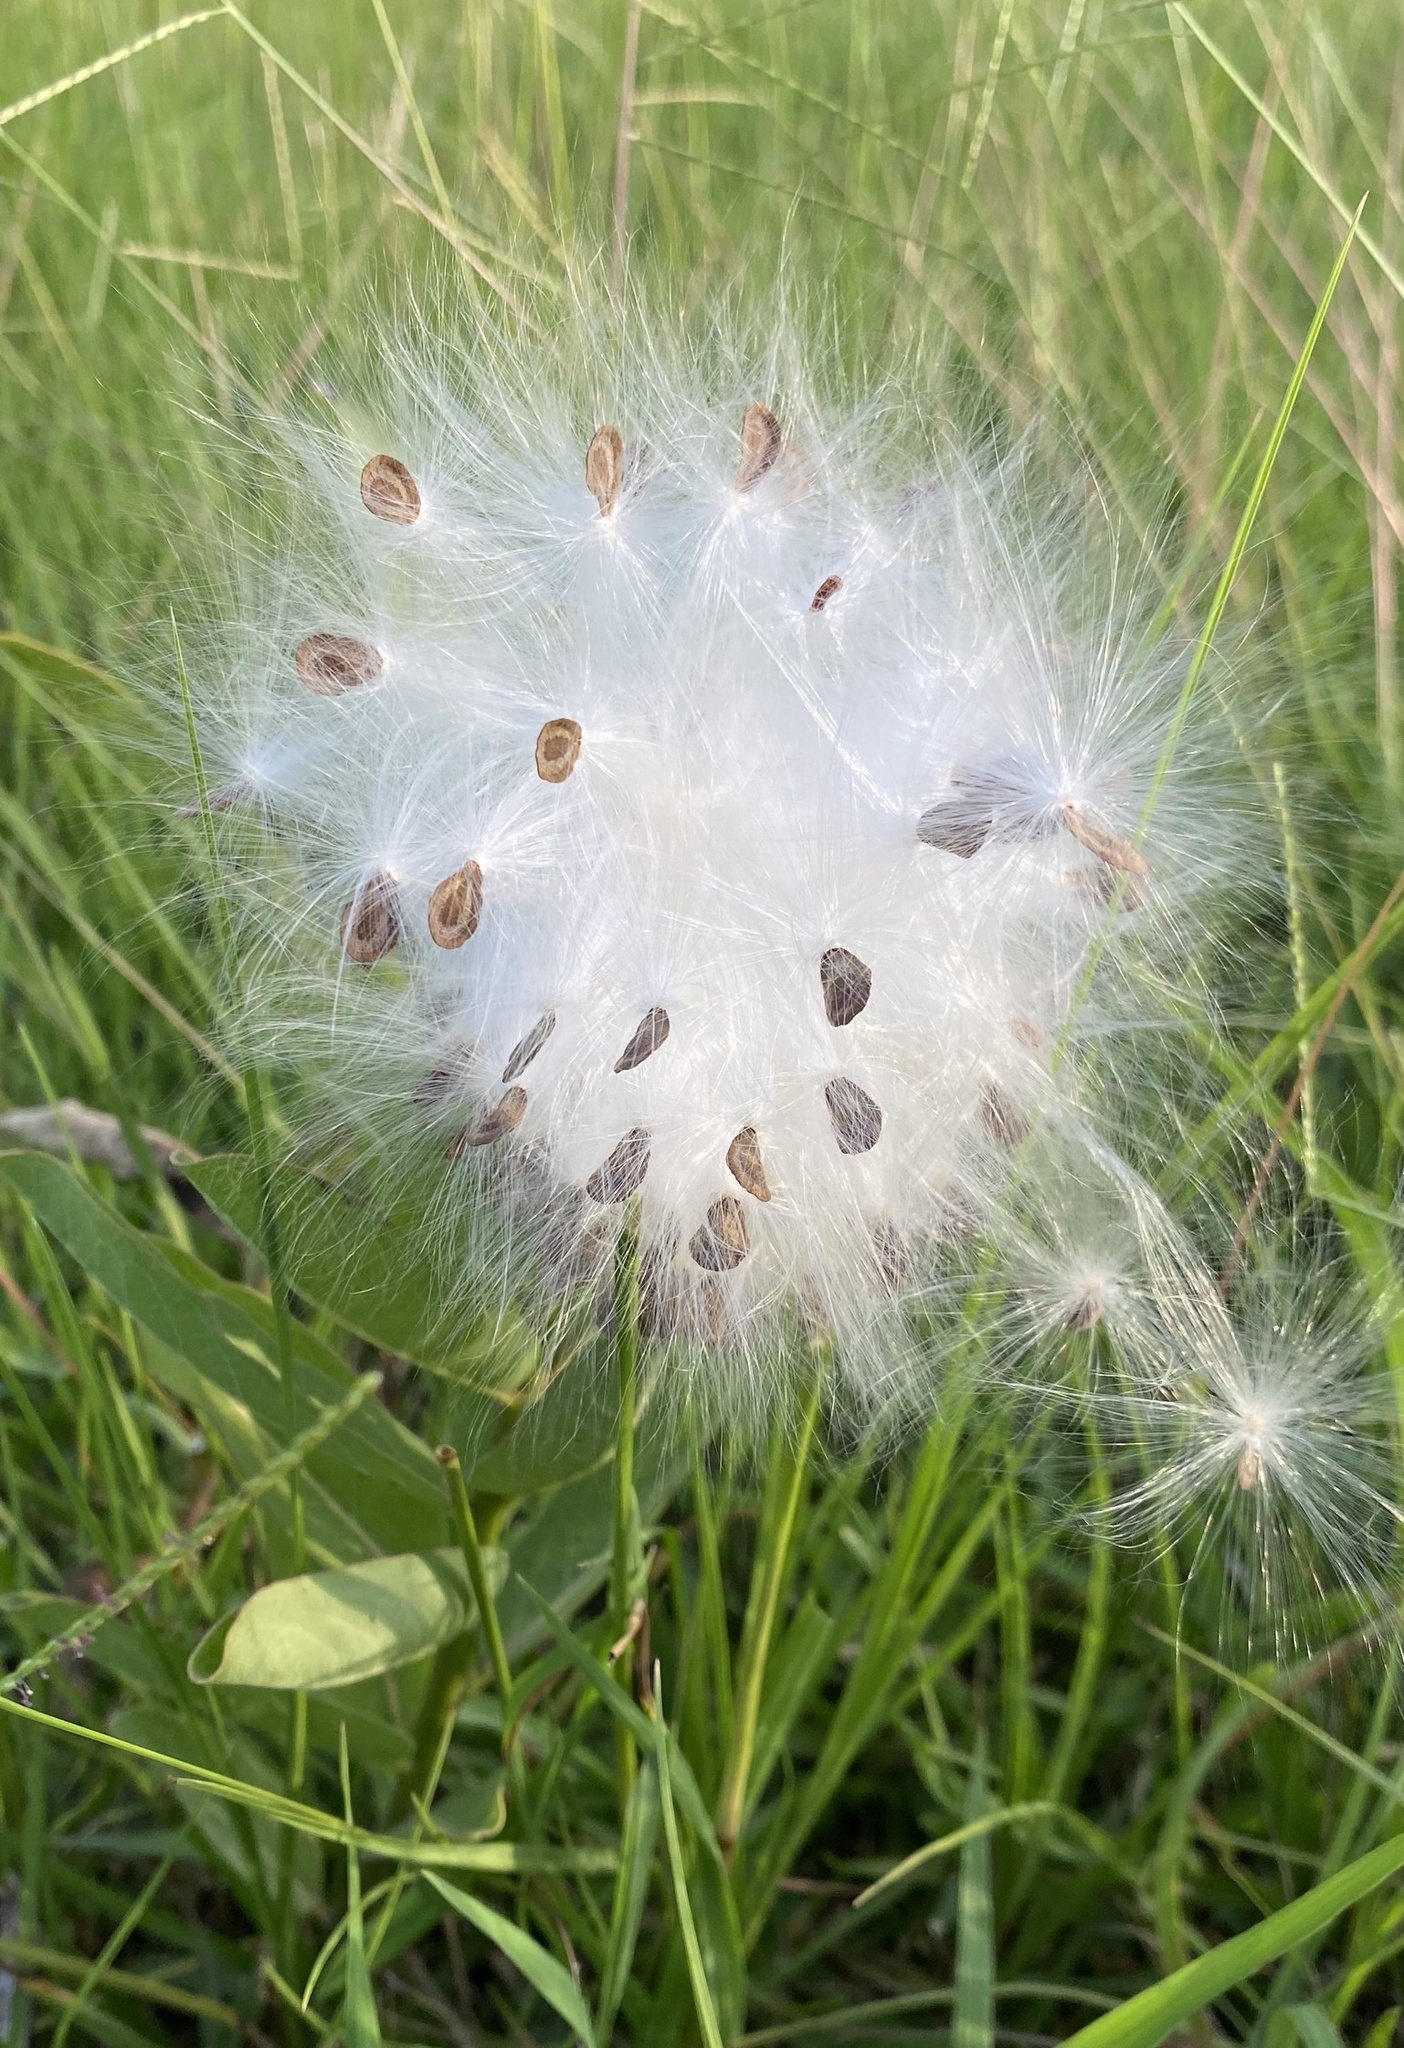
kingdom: Plantae
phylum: Tracheophyta
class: Magnoliopsida
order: Gentianales
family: Apocynaceae
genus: Asclepias
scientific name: Asclepias viridis
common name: Antelope-horns
